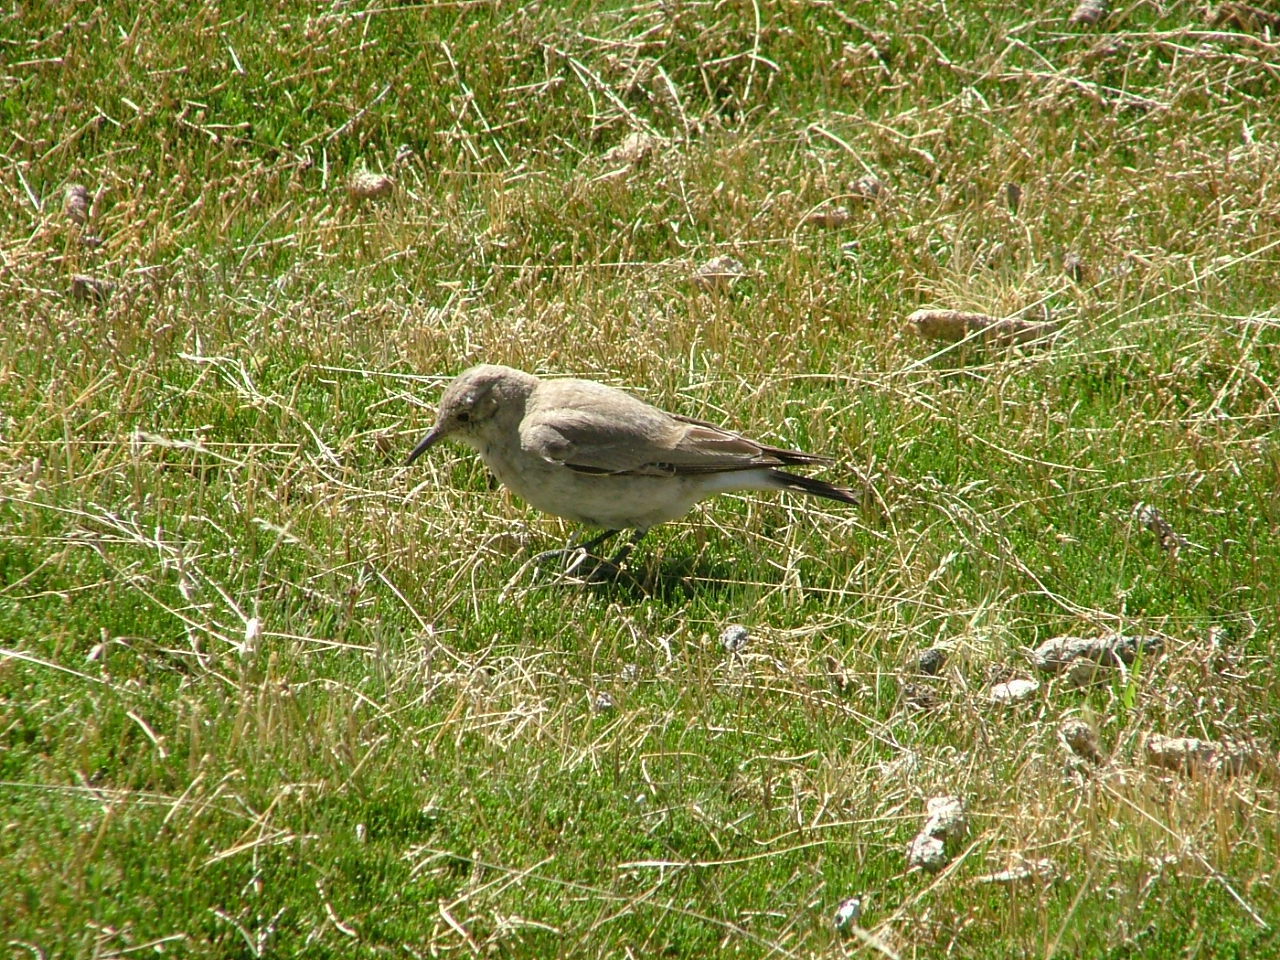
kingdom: Animalia
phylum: Chordata
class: Aves
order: Passeriformes
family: Furnariidae
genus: Geositta
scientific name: Geositta isabellina
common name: Creamy-rumped miner
